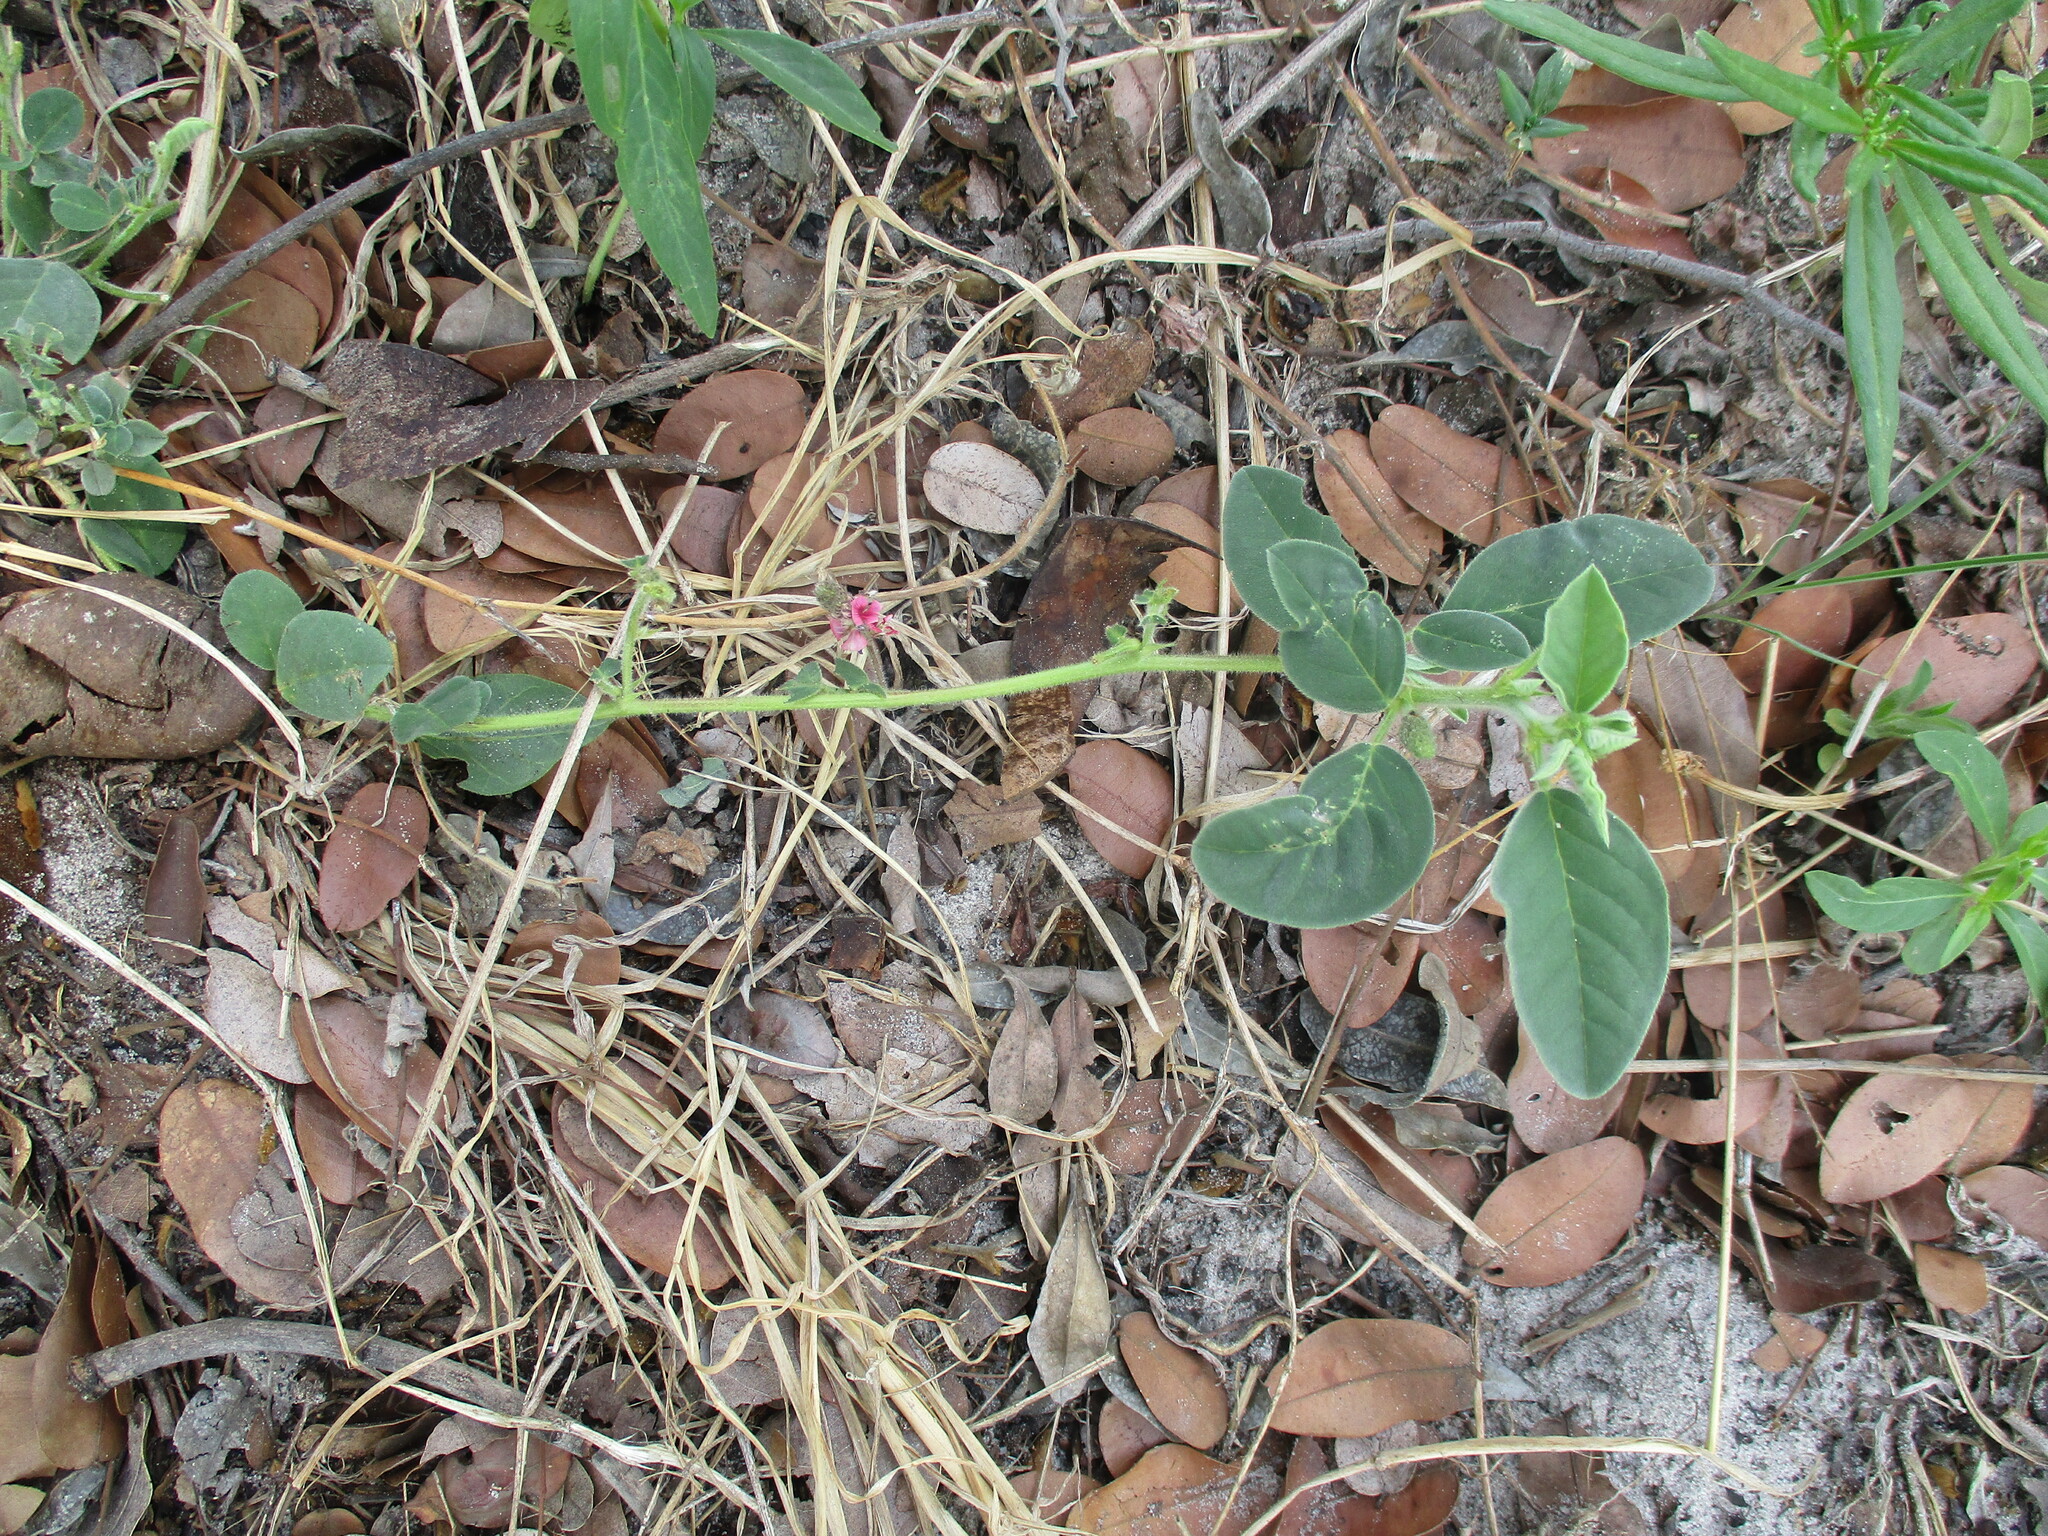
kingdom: Plantae
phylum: Tracheophyta
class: Magnoliopsida
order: Fabales
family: Fabaceae
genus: Indigofera
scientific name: Indigofera flavicans
